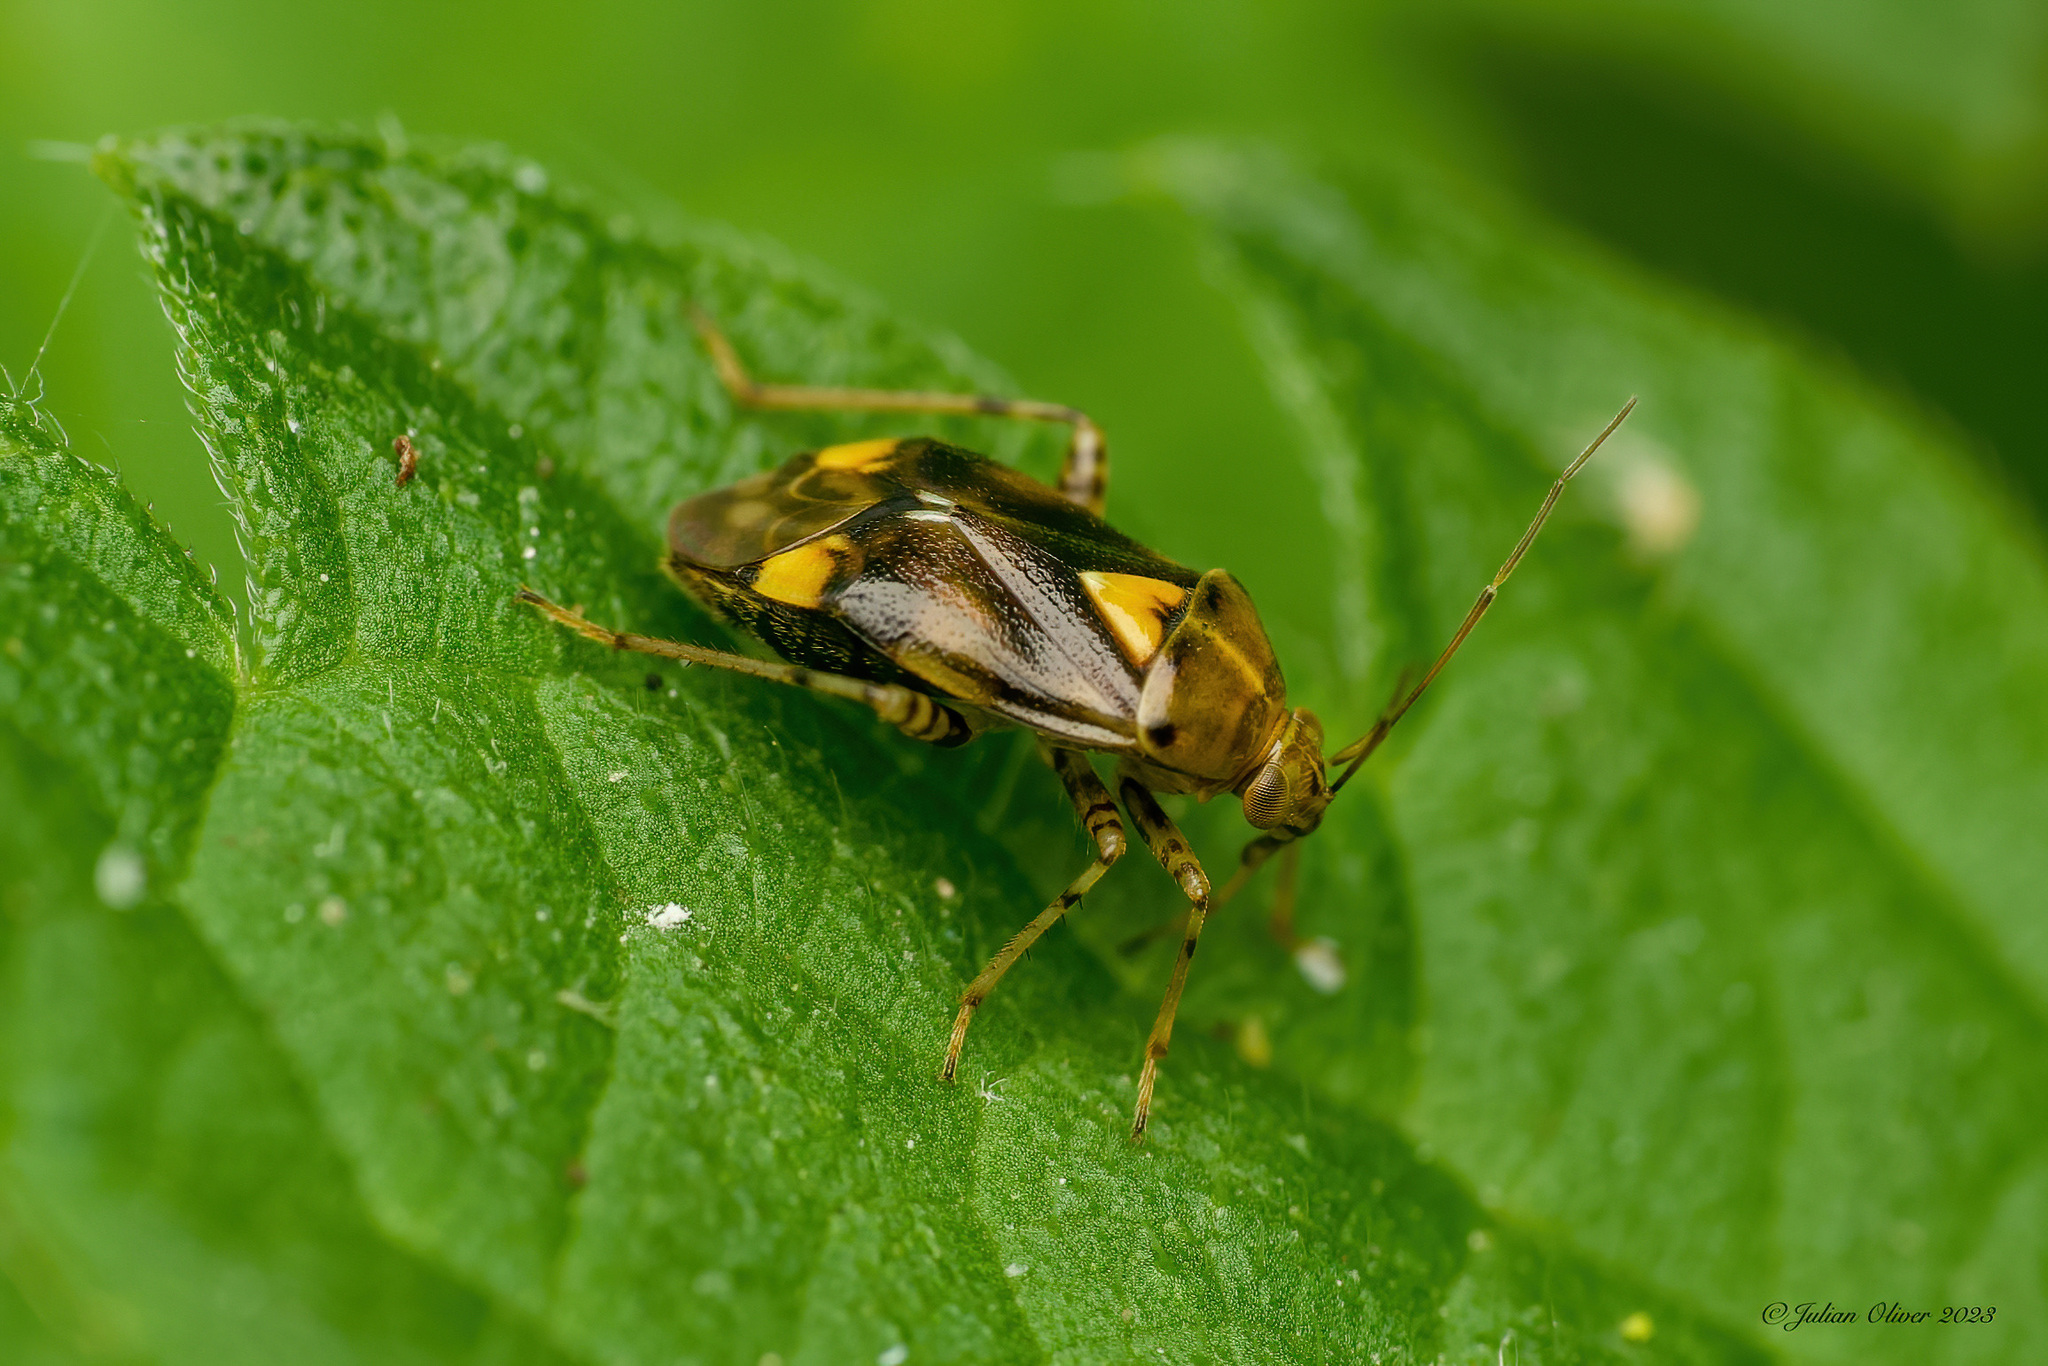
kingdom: Animalia
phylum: Arthropoda
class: Insecta
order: Hemiptera
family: Miridae
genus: Liocoris
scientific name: Liocoris tripustulatus
